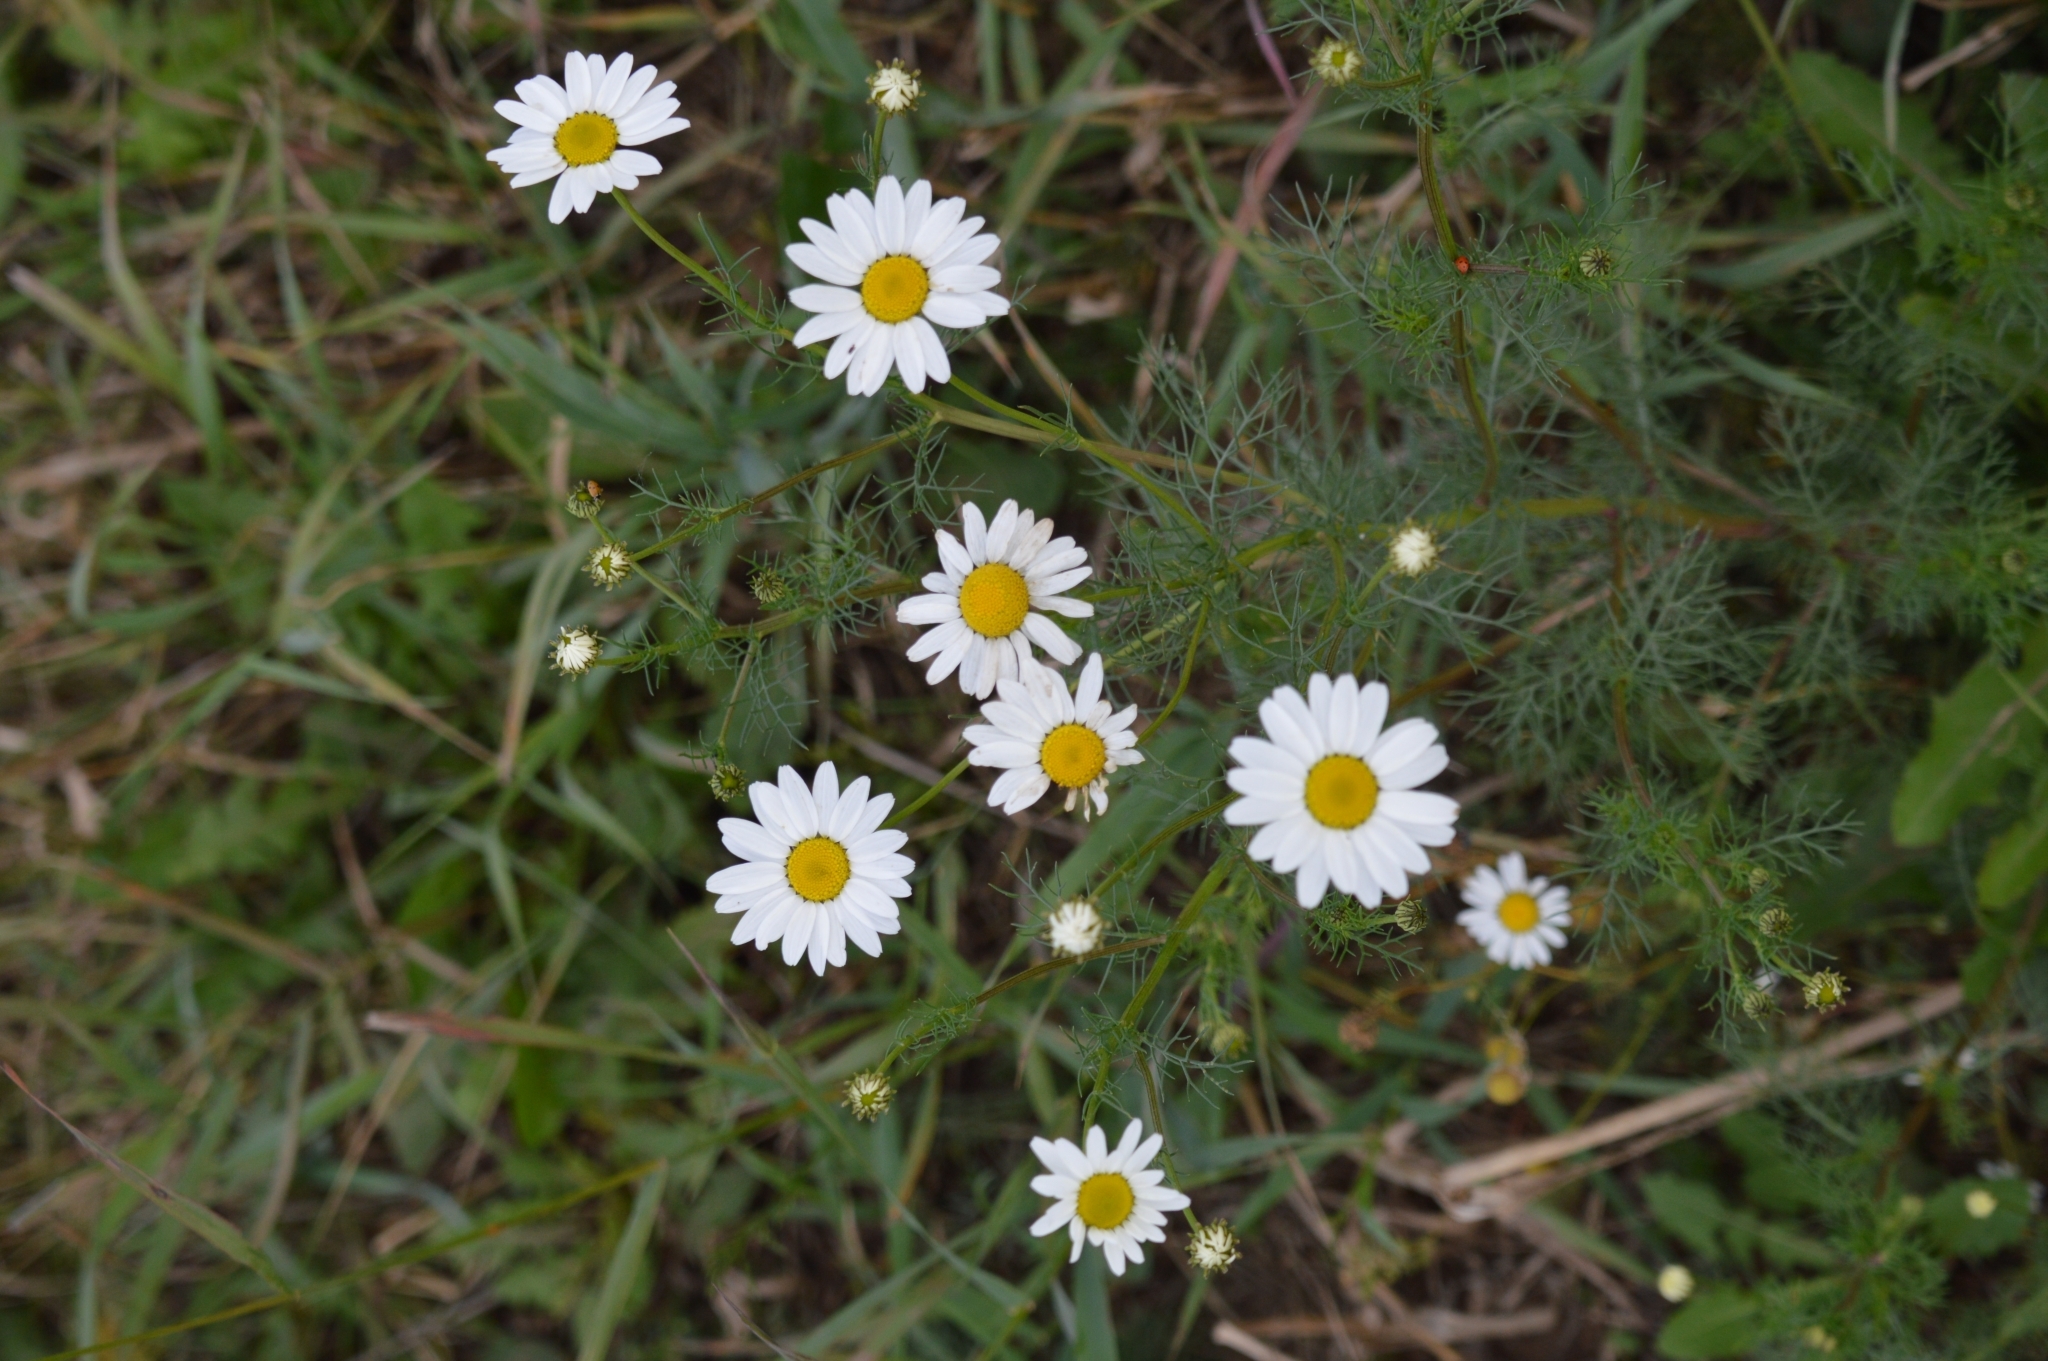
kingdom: Plantae
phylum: Tracheophyta
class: Magnoliopsida
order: Asterales
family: Asteraceae
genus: Tripleurospermum
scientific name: Tripleurospermum inodorum
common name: Scentless mayweed
